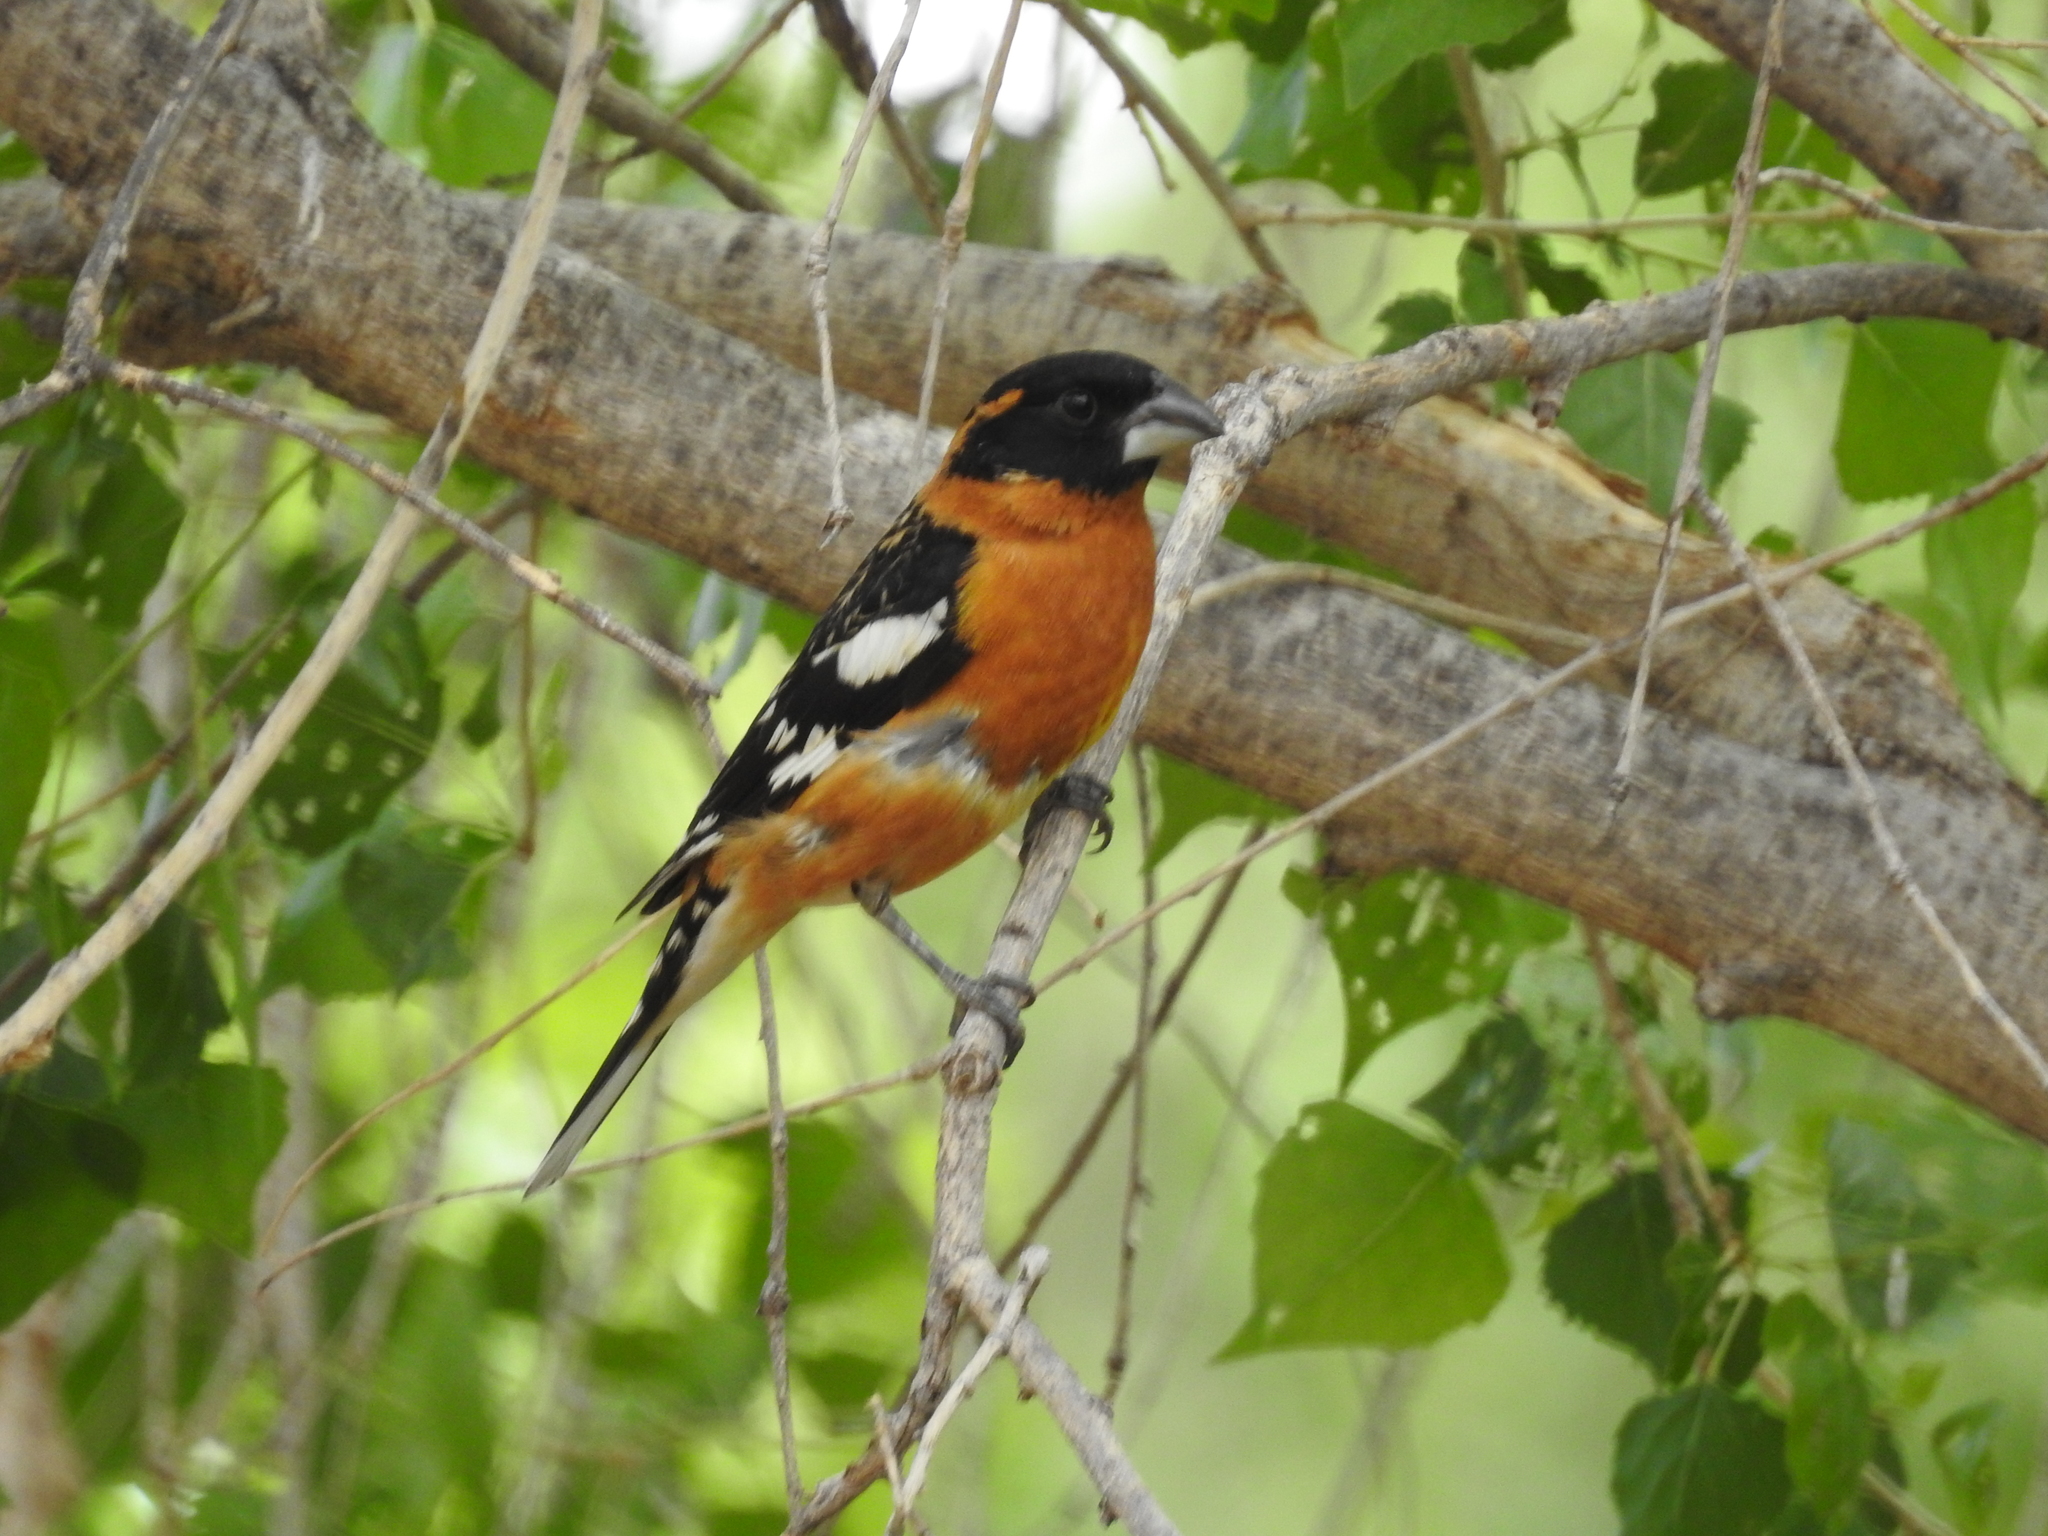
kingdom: Animalia
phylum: Chordata
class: Aves
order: Passeriformes
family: Cardinalidae
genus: Pheucticus
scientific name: Pheucticus melanocephalus
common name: Black-headed grosbeak
